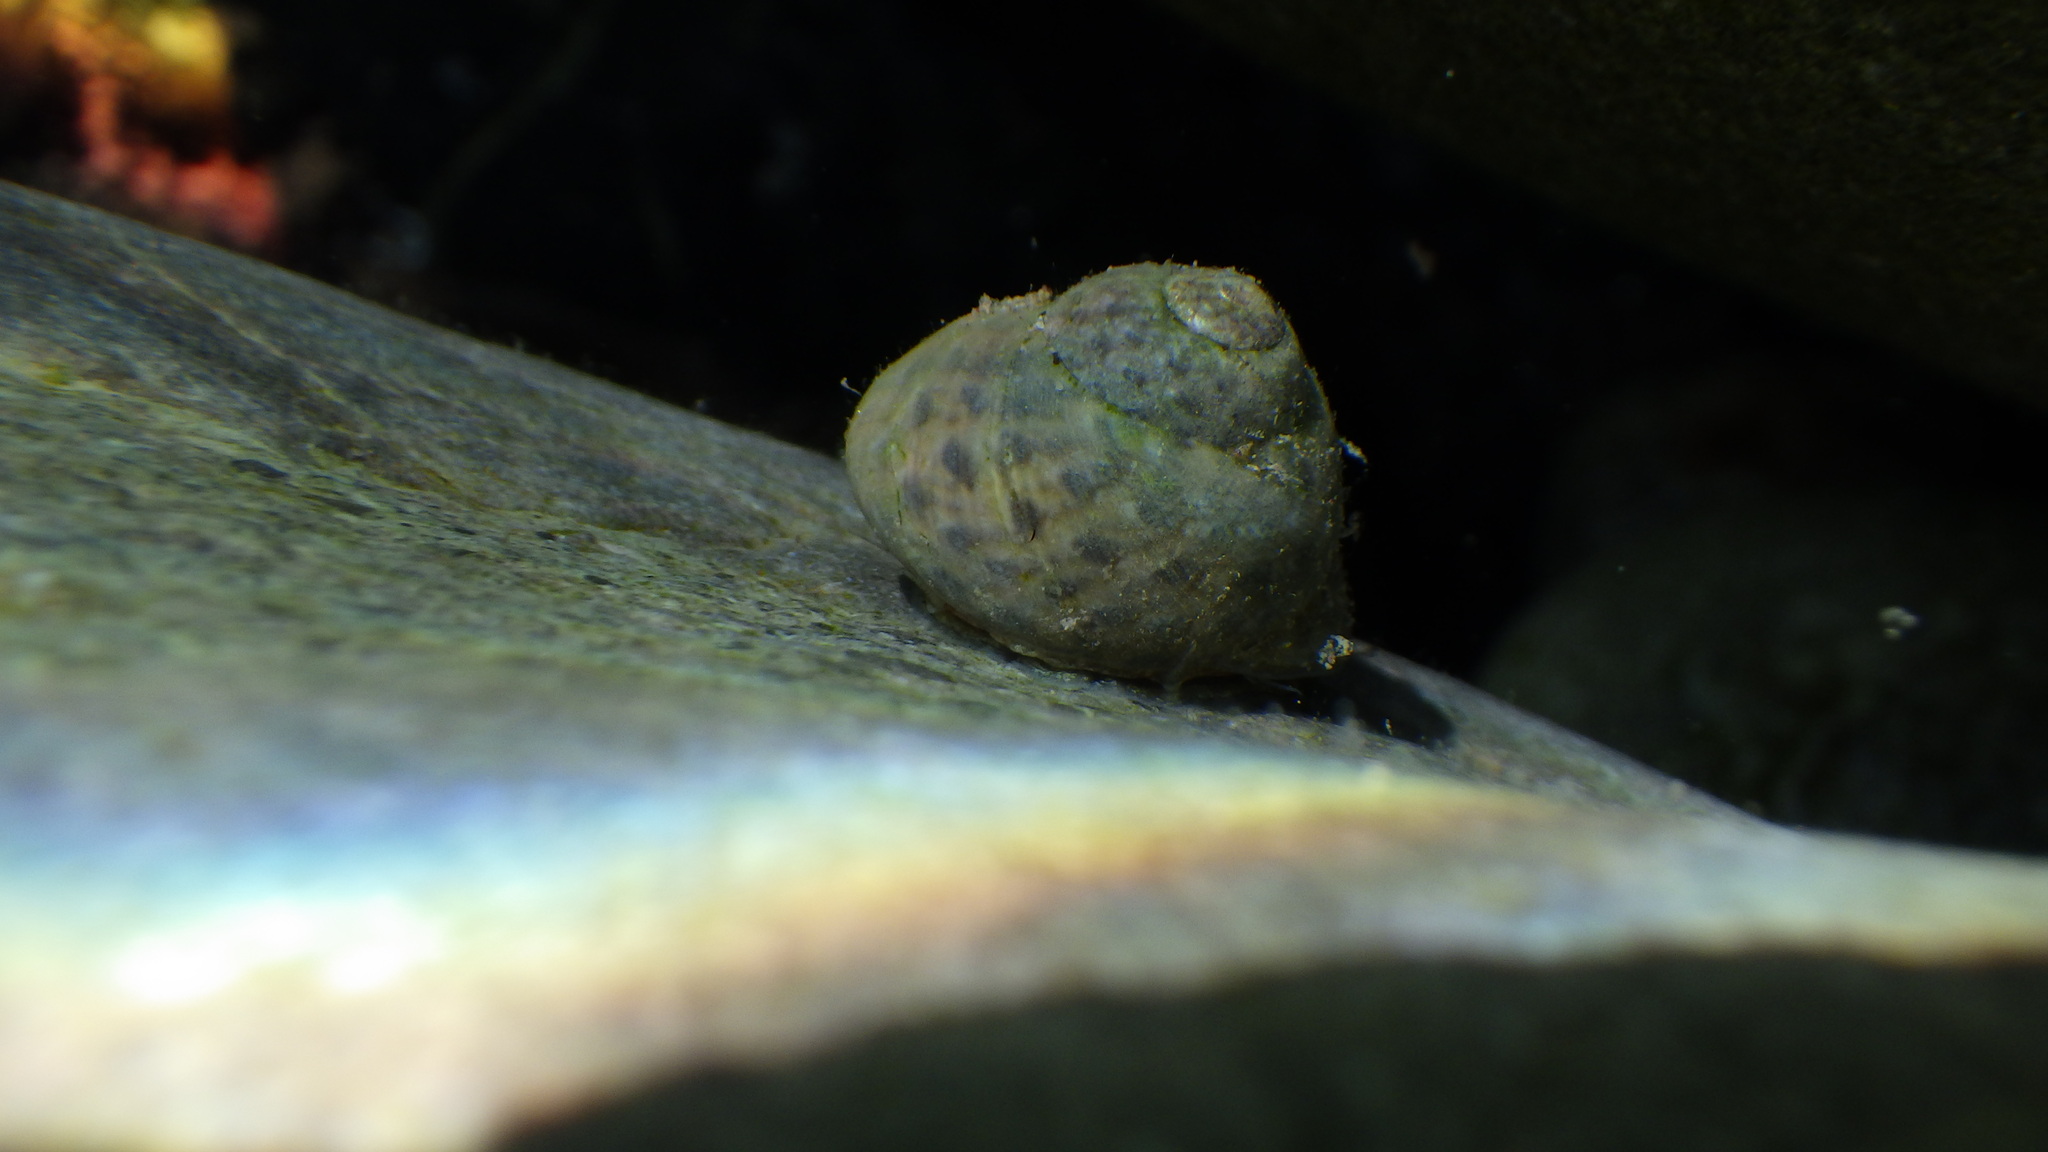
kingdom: Animalia
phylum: Mollusca
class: Gastropoda
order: Trochida
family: Trochidae
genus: Phorcus
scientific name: Phorcus richardi
